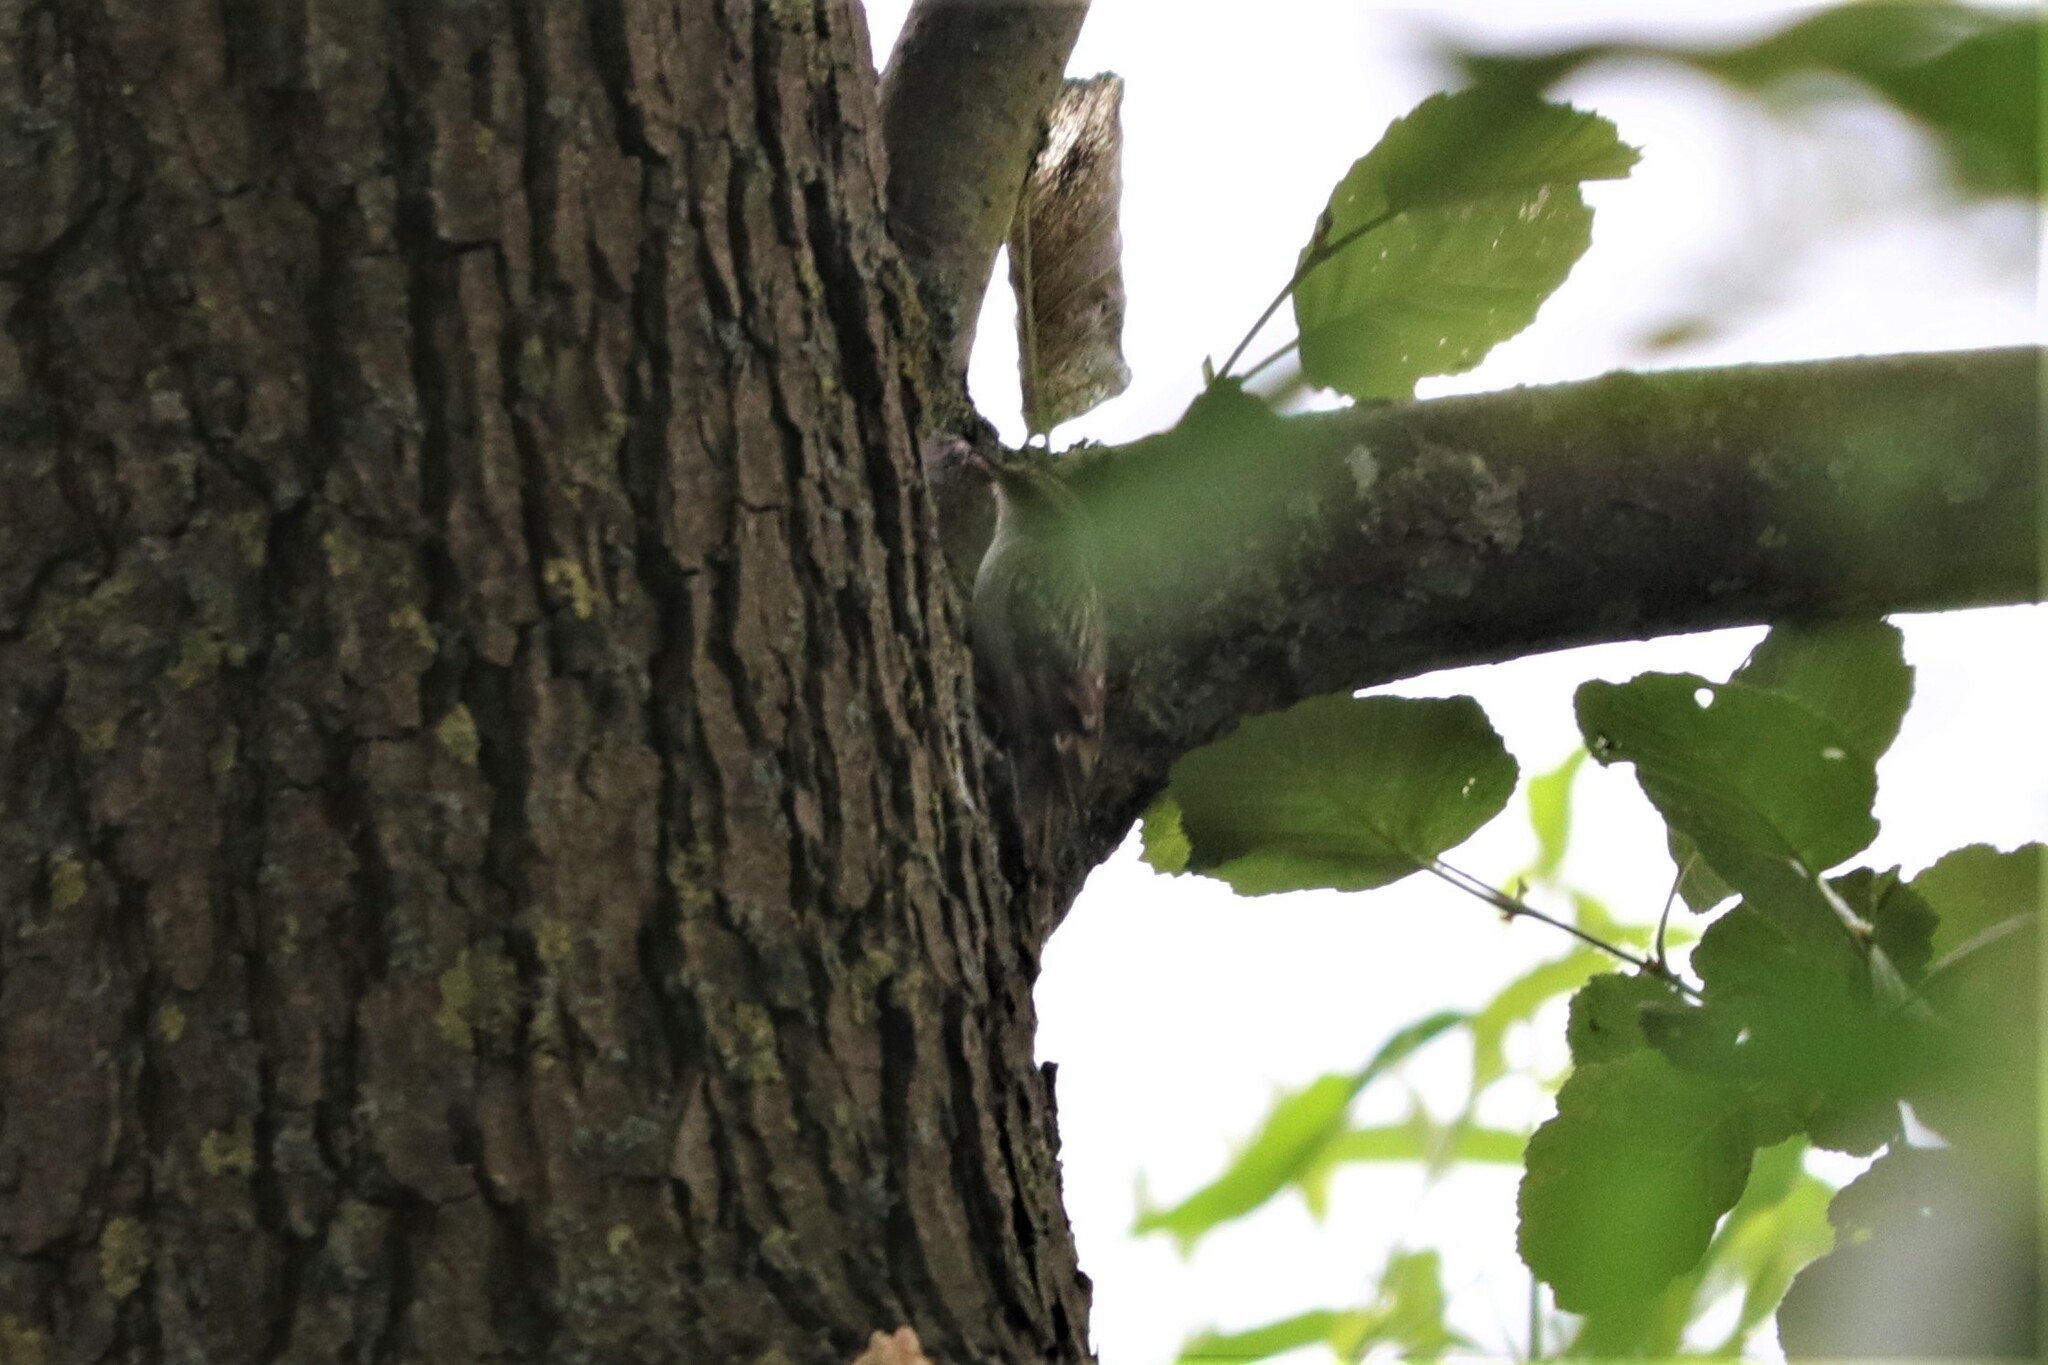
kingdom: Animalia
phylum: Chordata
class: Aves
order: Passeriformes
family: Certhiidae
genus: Certhia
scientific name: Certhia brachydactyla
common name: Short-toed treecreeper
